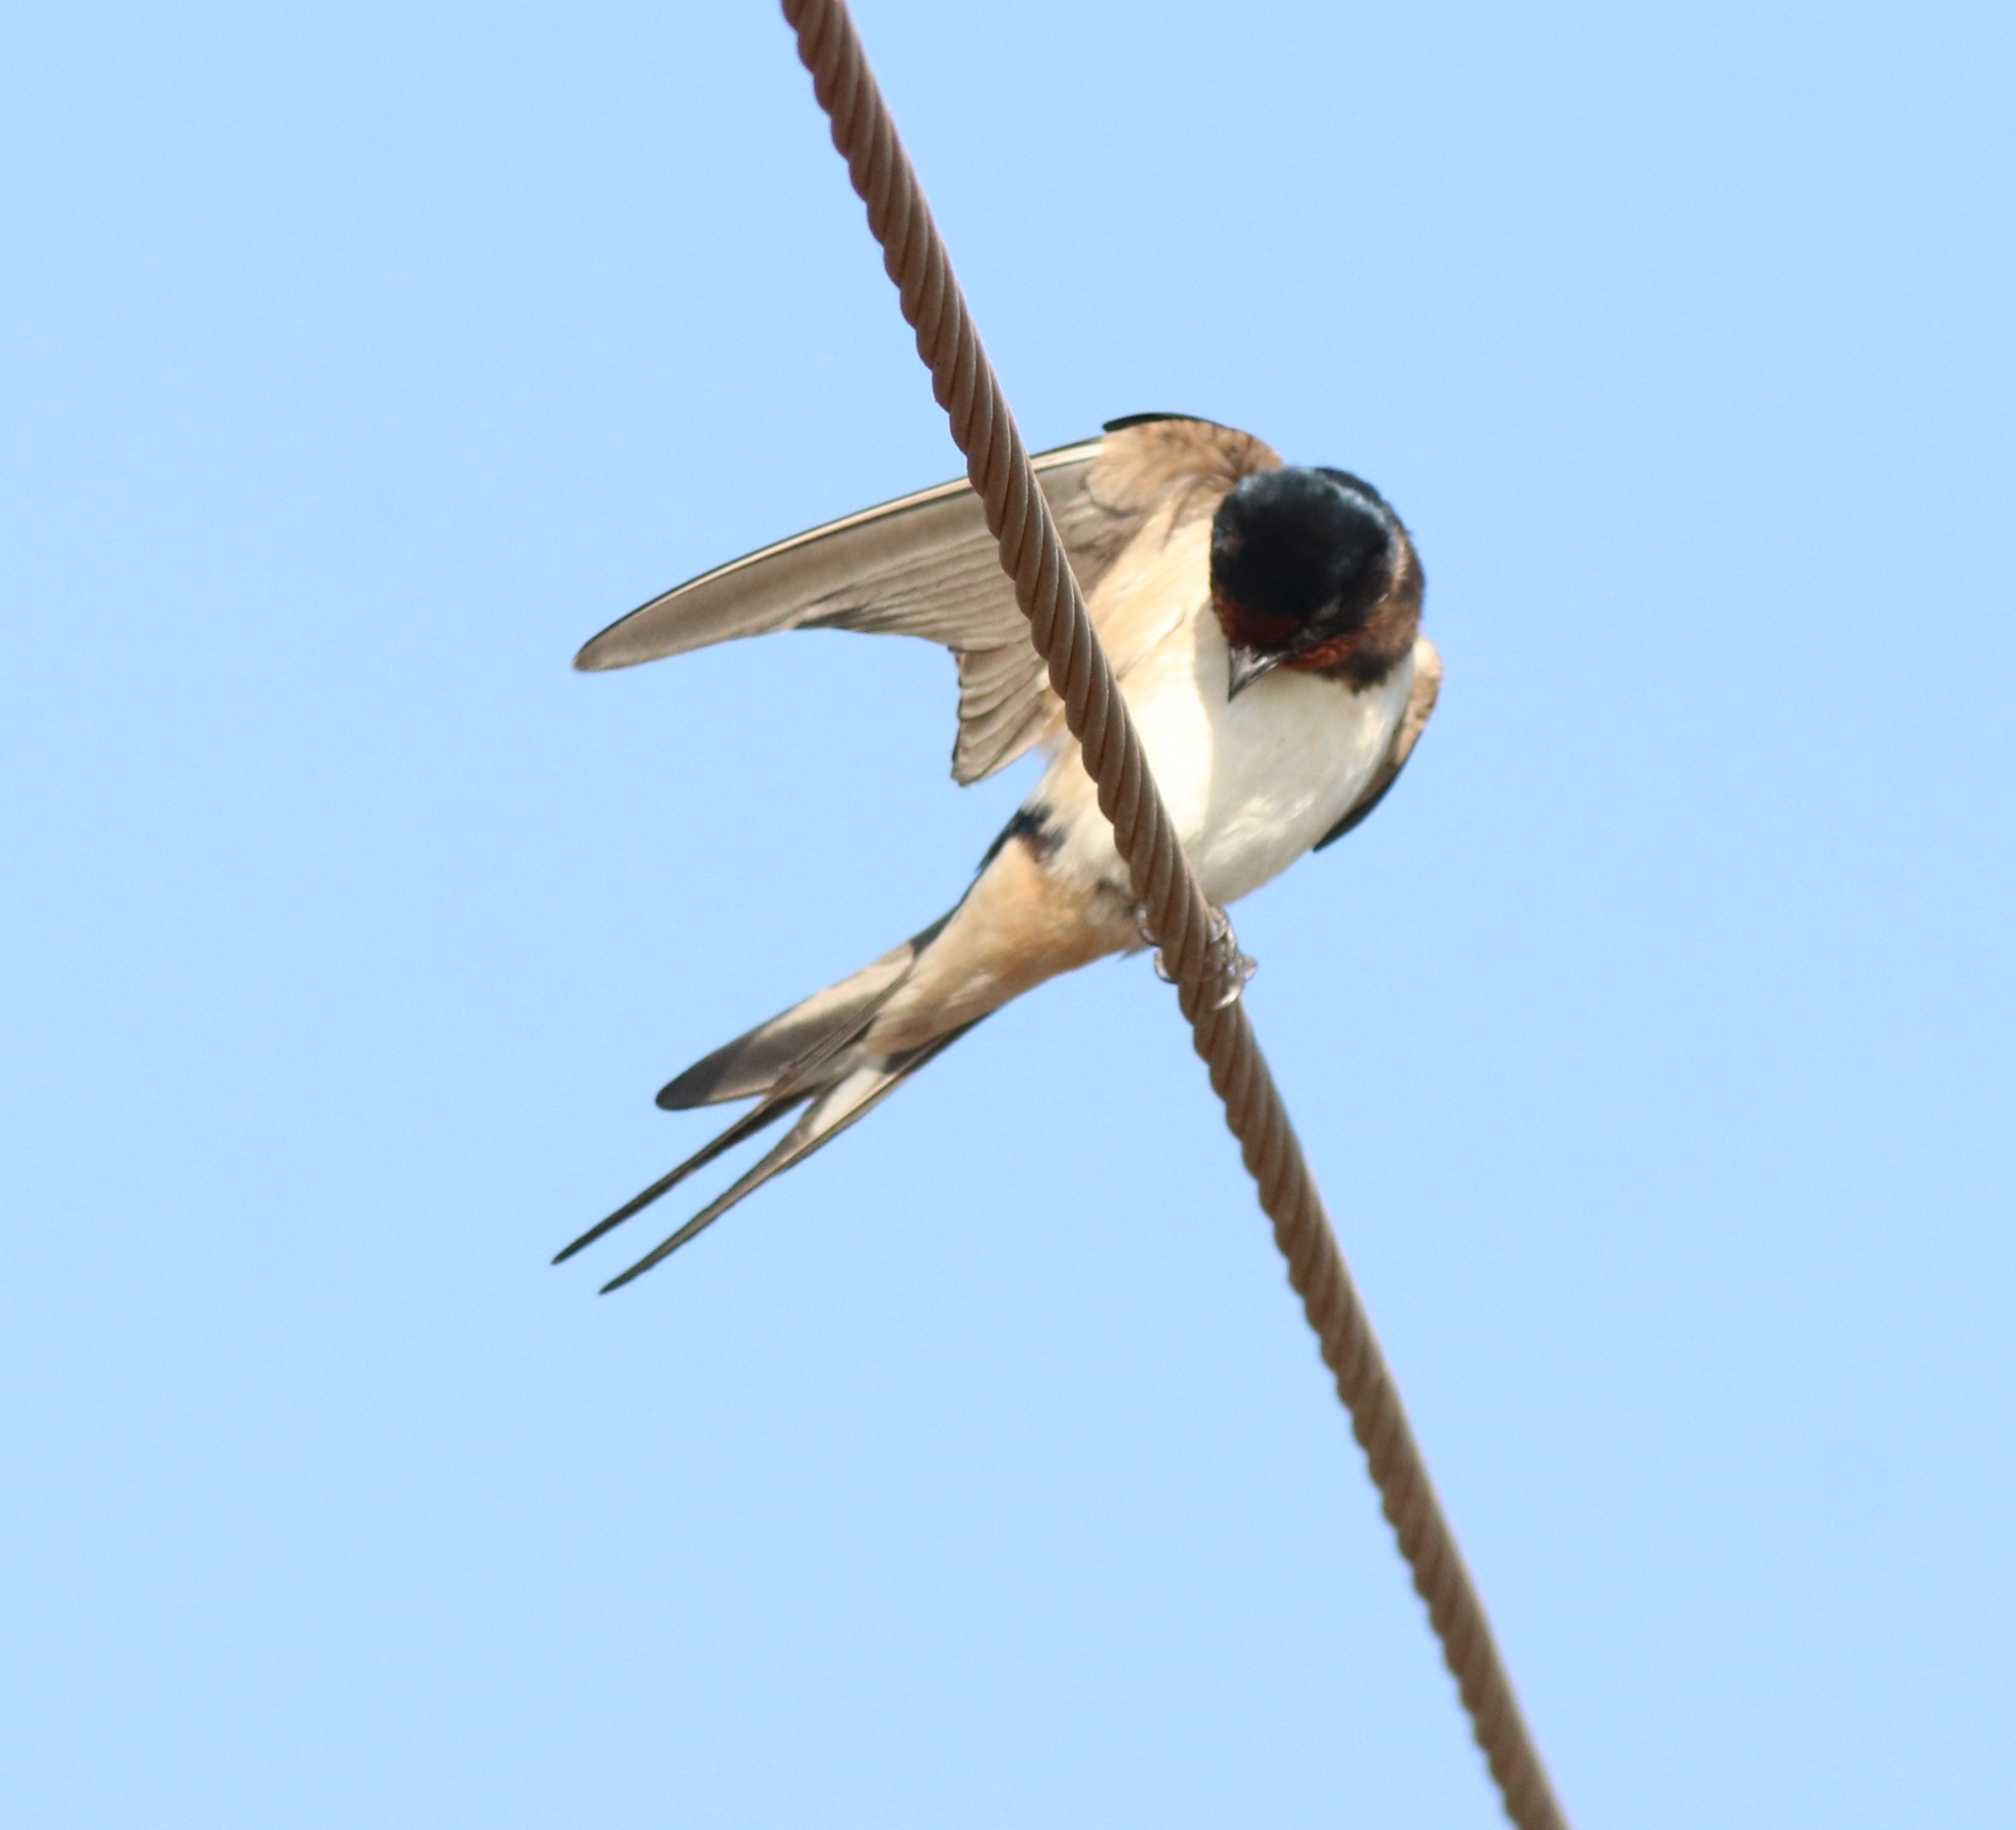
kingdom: Animalia
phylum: Chordata
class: Aves
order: Passeriformes
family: Hirundinidae
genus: Hirundo
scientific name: Hirundo rustica
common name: Barn swallow
